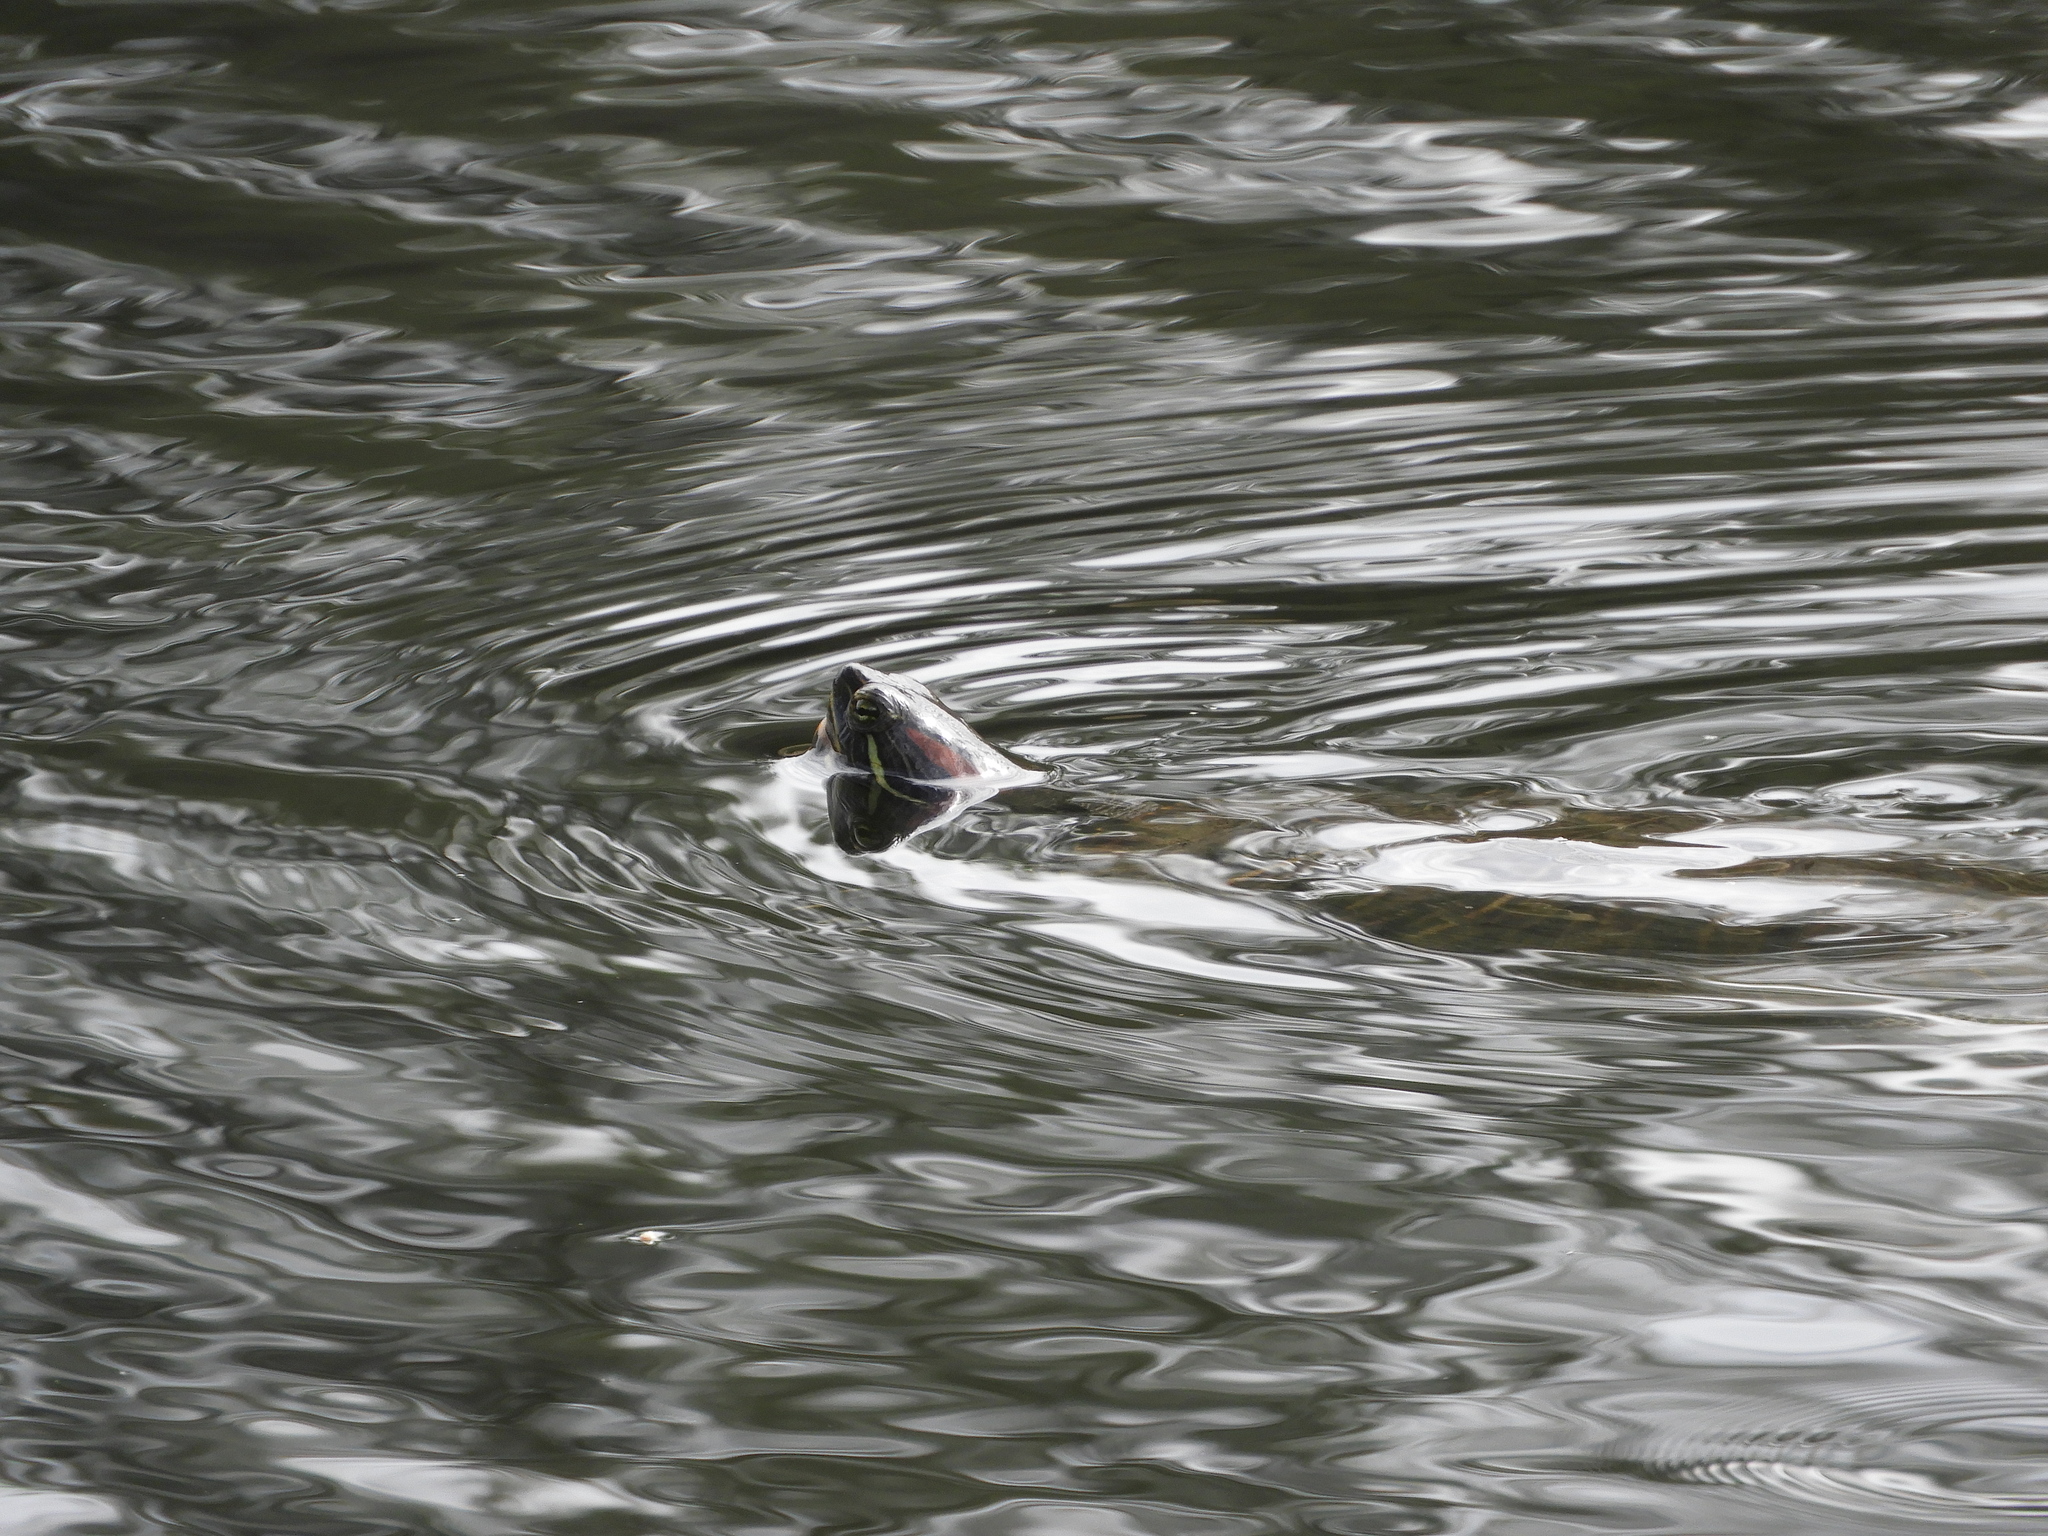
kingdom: Animalia
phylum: Chordata
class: Testudines
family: Emydidae
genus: Trachemys
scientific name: Trachemys scripta
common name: Slider
